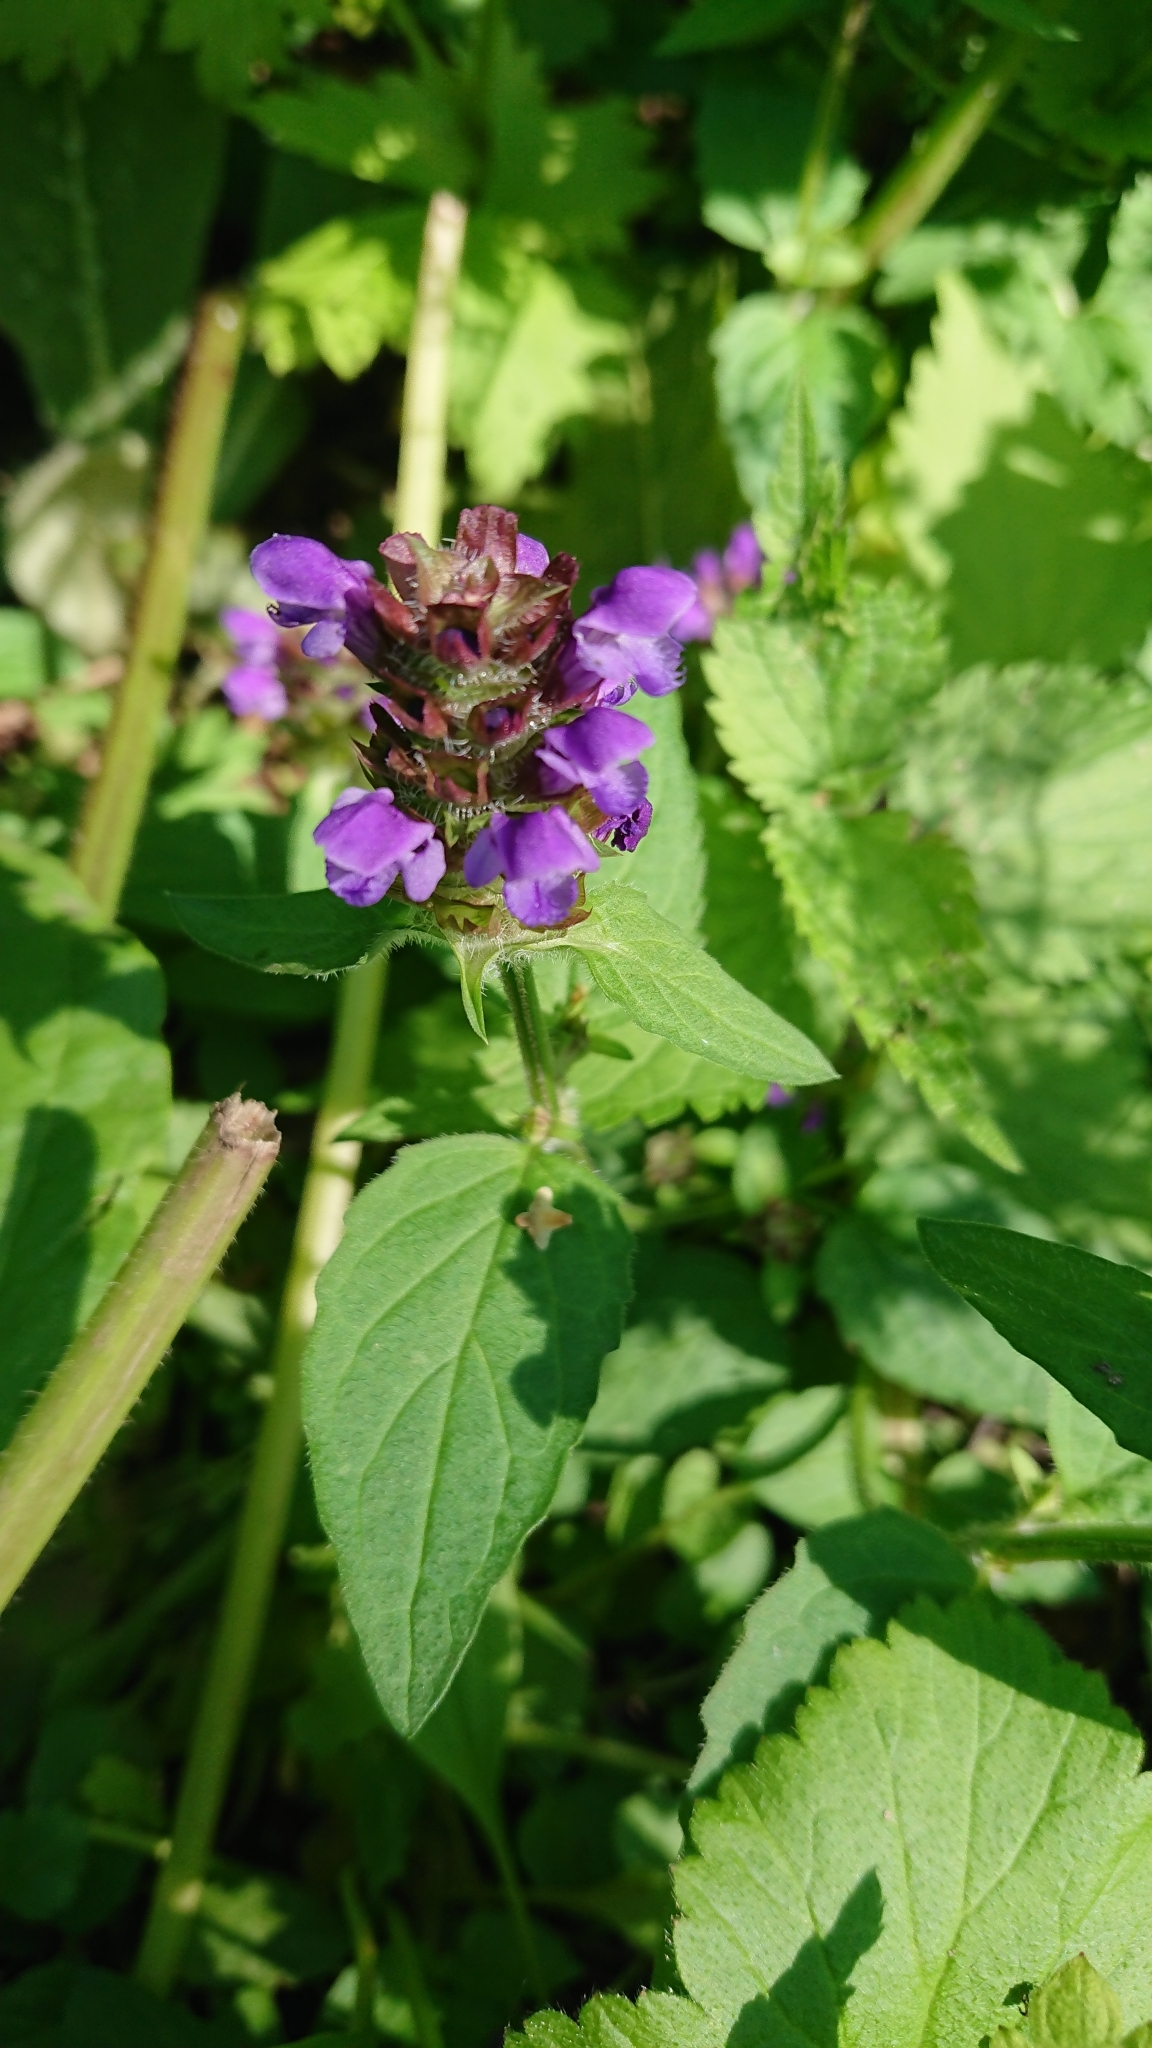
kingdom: Plantae
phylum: Tracheophyta
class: Magnoliopsida
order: Lamiales
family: Lamiaceae
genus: Prunella
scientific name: Prunella vulgaris
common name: Heal-all
